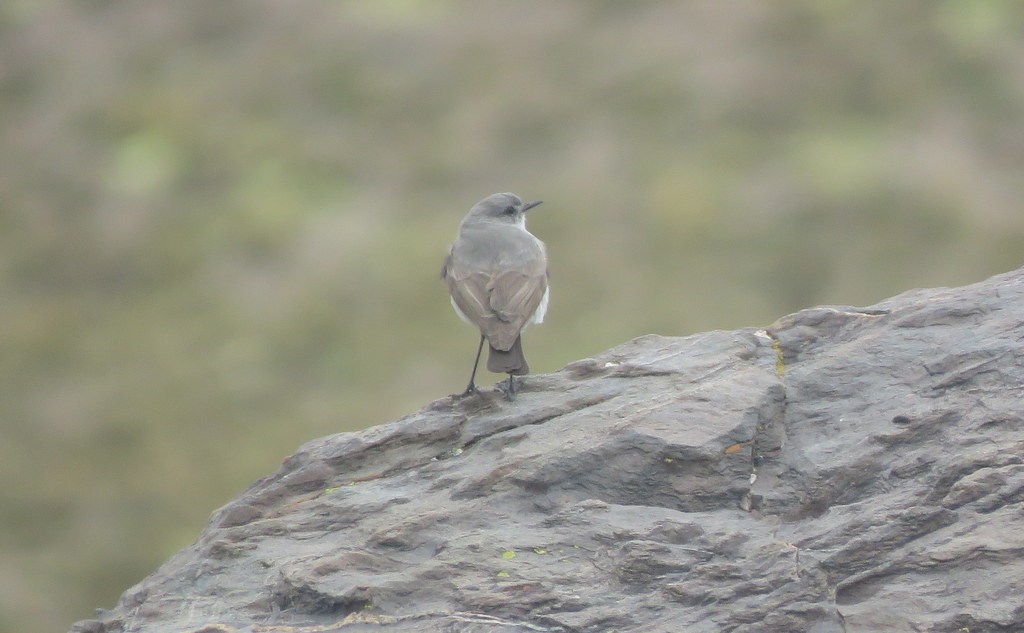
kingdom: Animalia
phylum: Chordata
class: Aves
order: Passeriformes
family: Tyrannidae
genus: Muscisaxicola
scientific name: Muscisaxicola cinereus
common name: Cinereous ground tyrant
